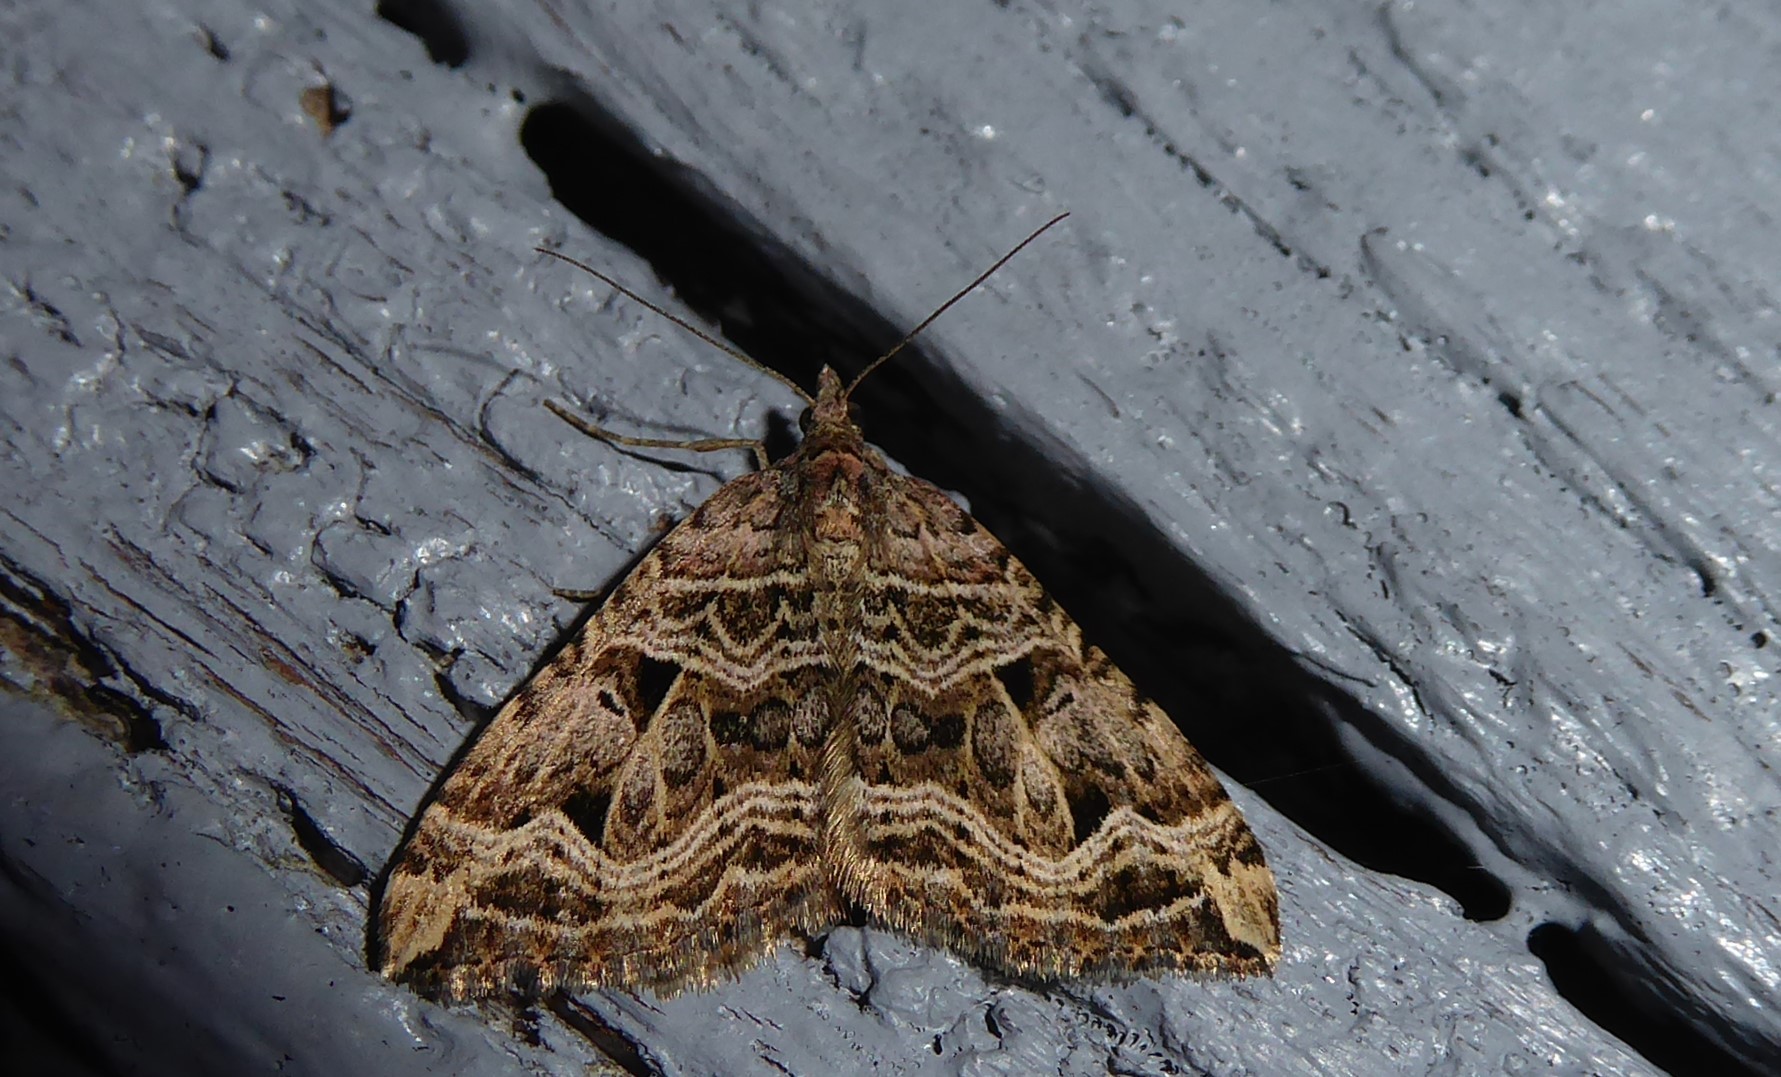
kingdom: Animalia
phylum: Arthropoda
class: Insecta
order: Lepidoptera
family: Geometridae
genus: Xanthorhoe
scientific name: Xanthorhoe semifissata
